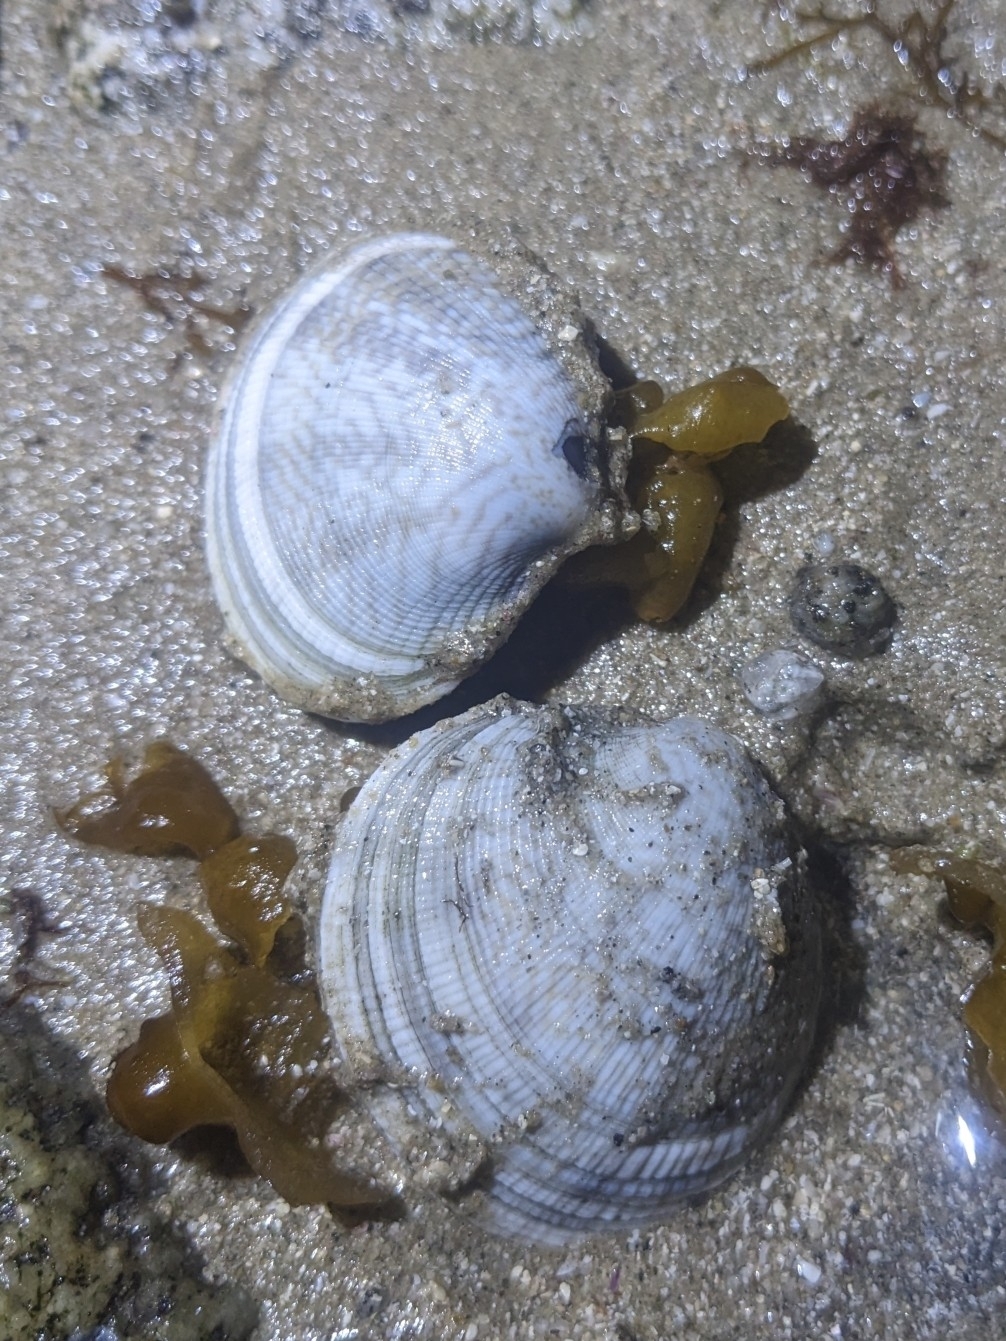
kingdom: Animalia
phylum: Mollusca
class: Bivalvia
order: Venerida
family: Veneridae
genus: Leukoma
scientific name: Leukoma grata
